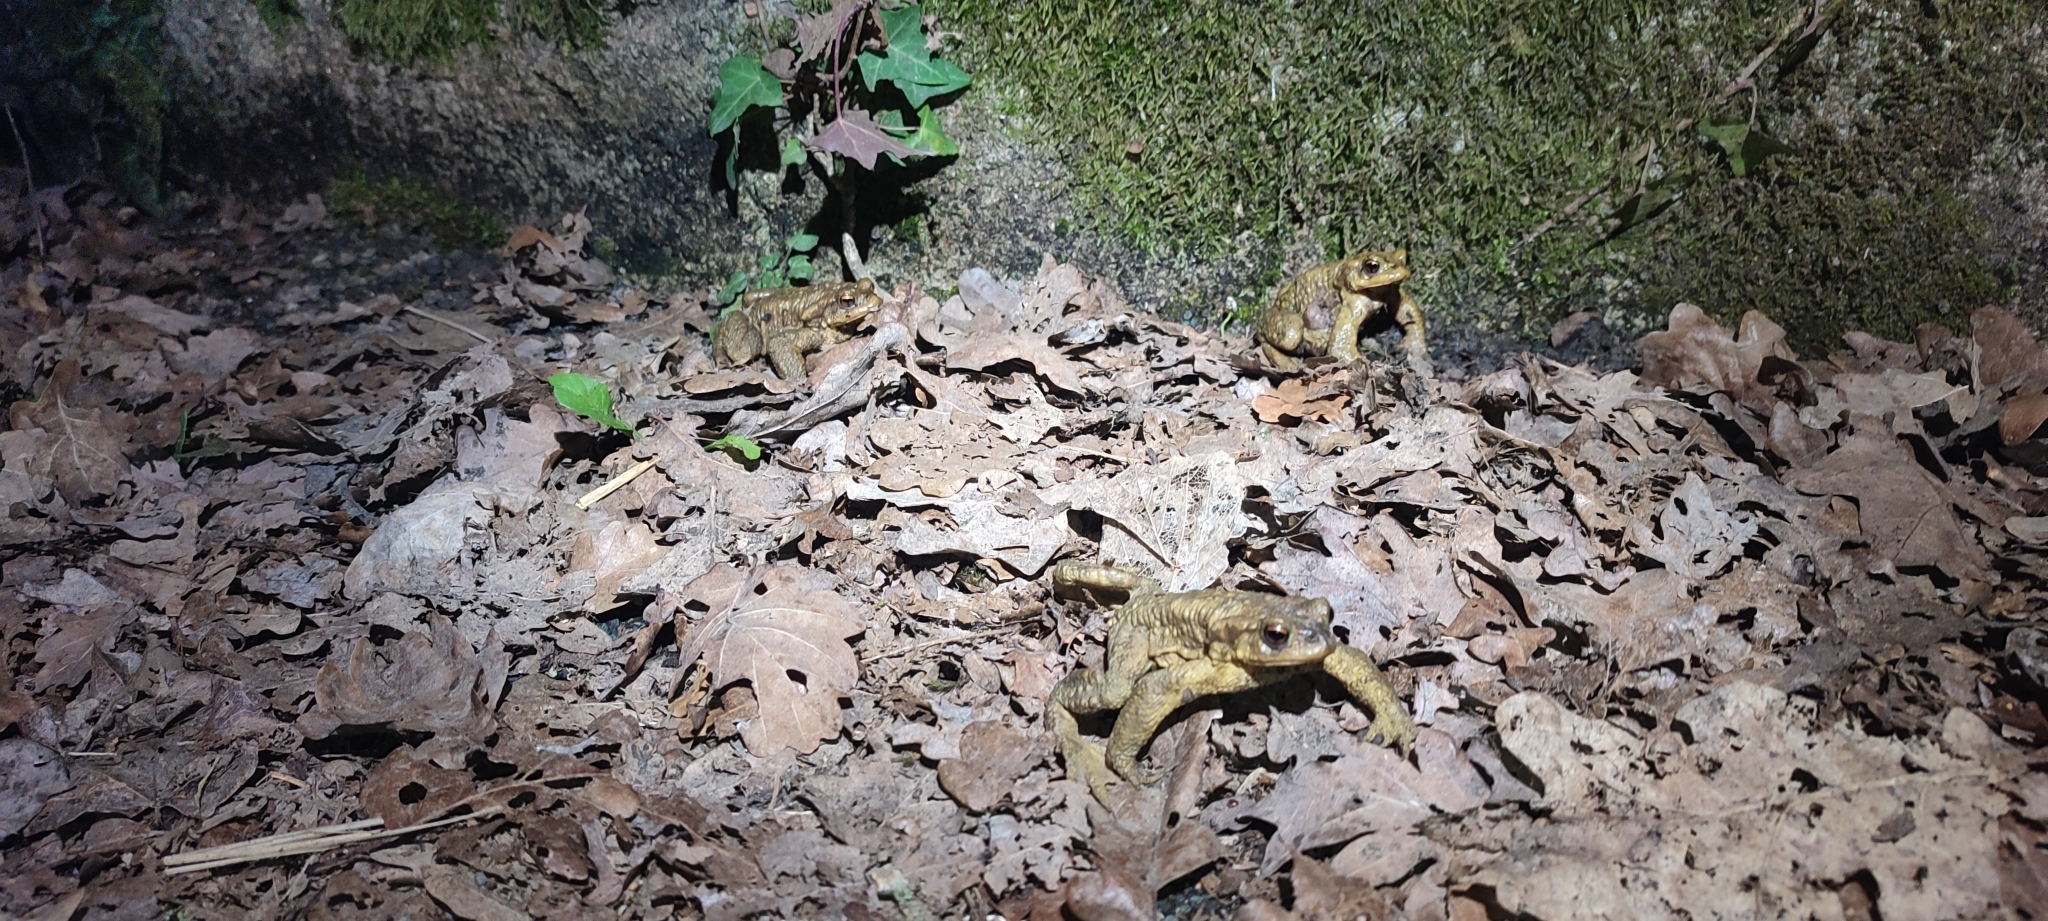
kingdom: Animalia
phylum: Chordata
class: Amphibia
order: Anura
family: Bufonidae
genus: Bufo
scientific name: Bufo spinosus
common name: Western common toad
